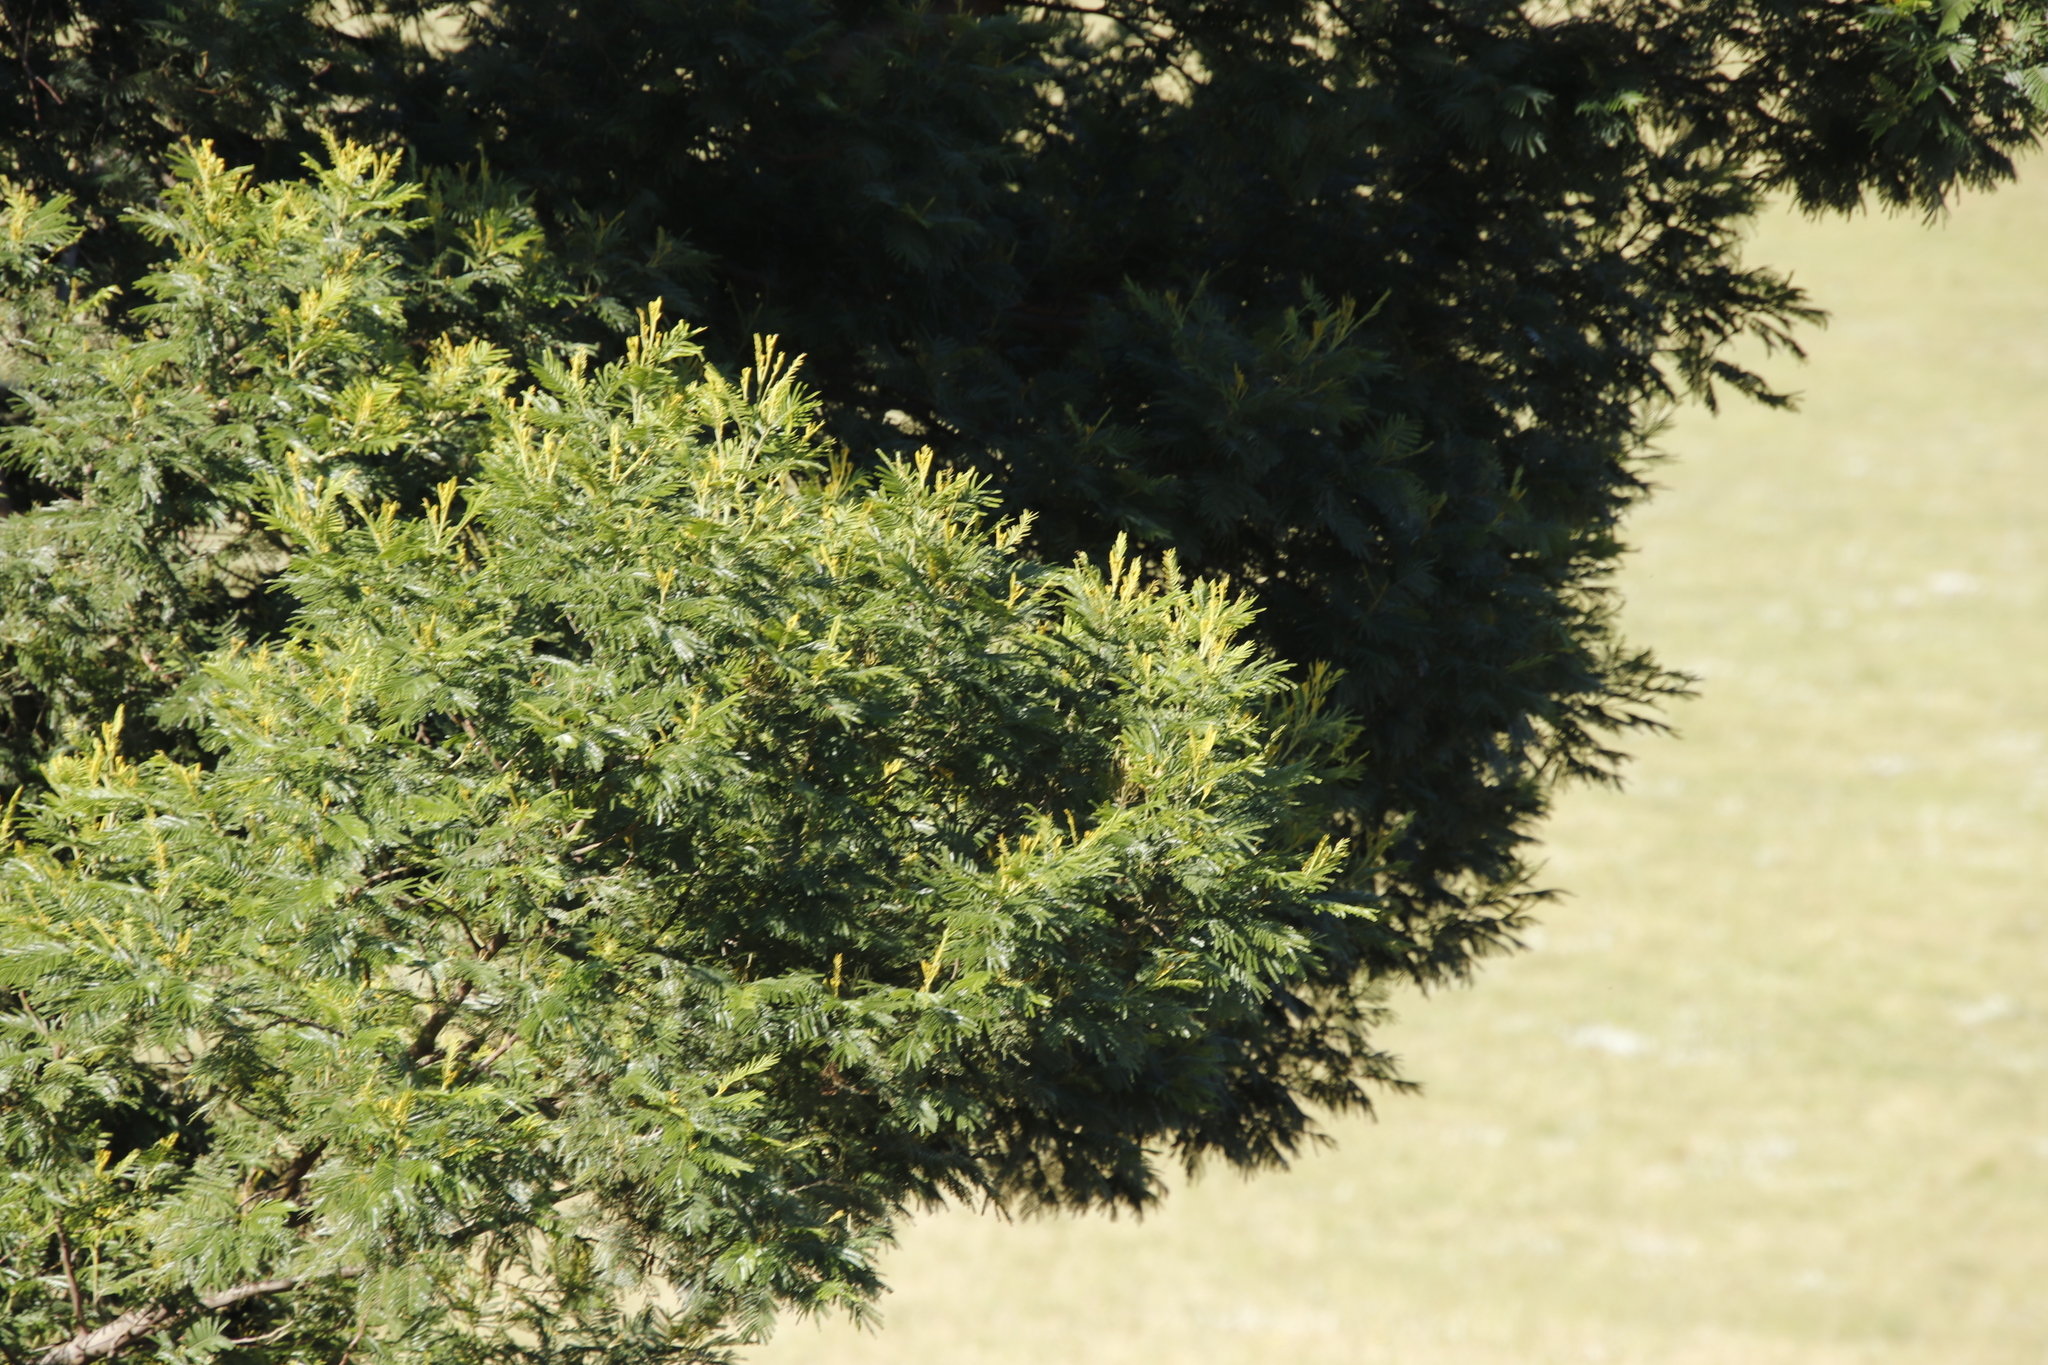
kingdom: Plantae
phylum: Tracheophyta
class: Magnoliopsida
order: Fabales
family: Fabaceae
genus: Acacia
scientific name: Acacia mearnsii
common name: Black wattle
